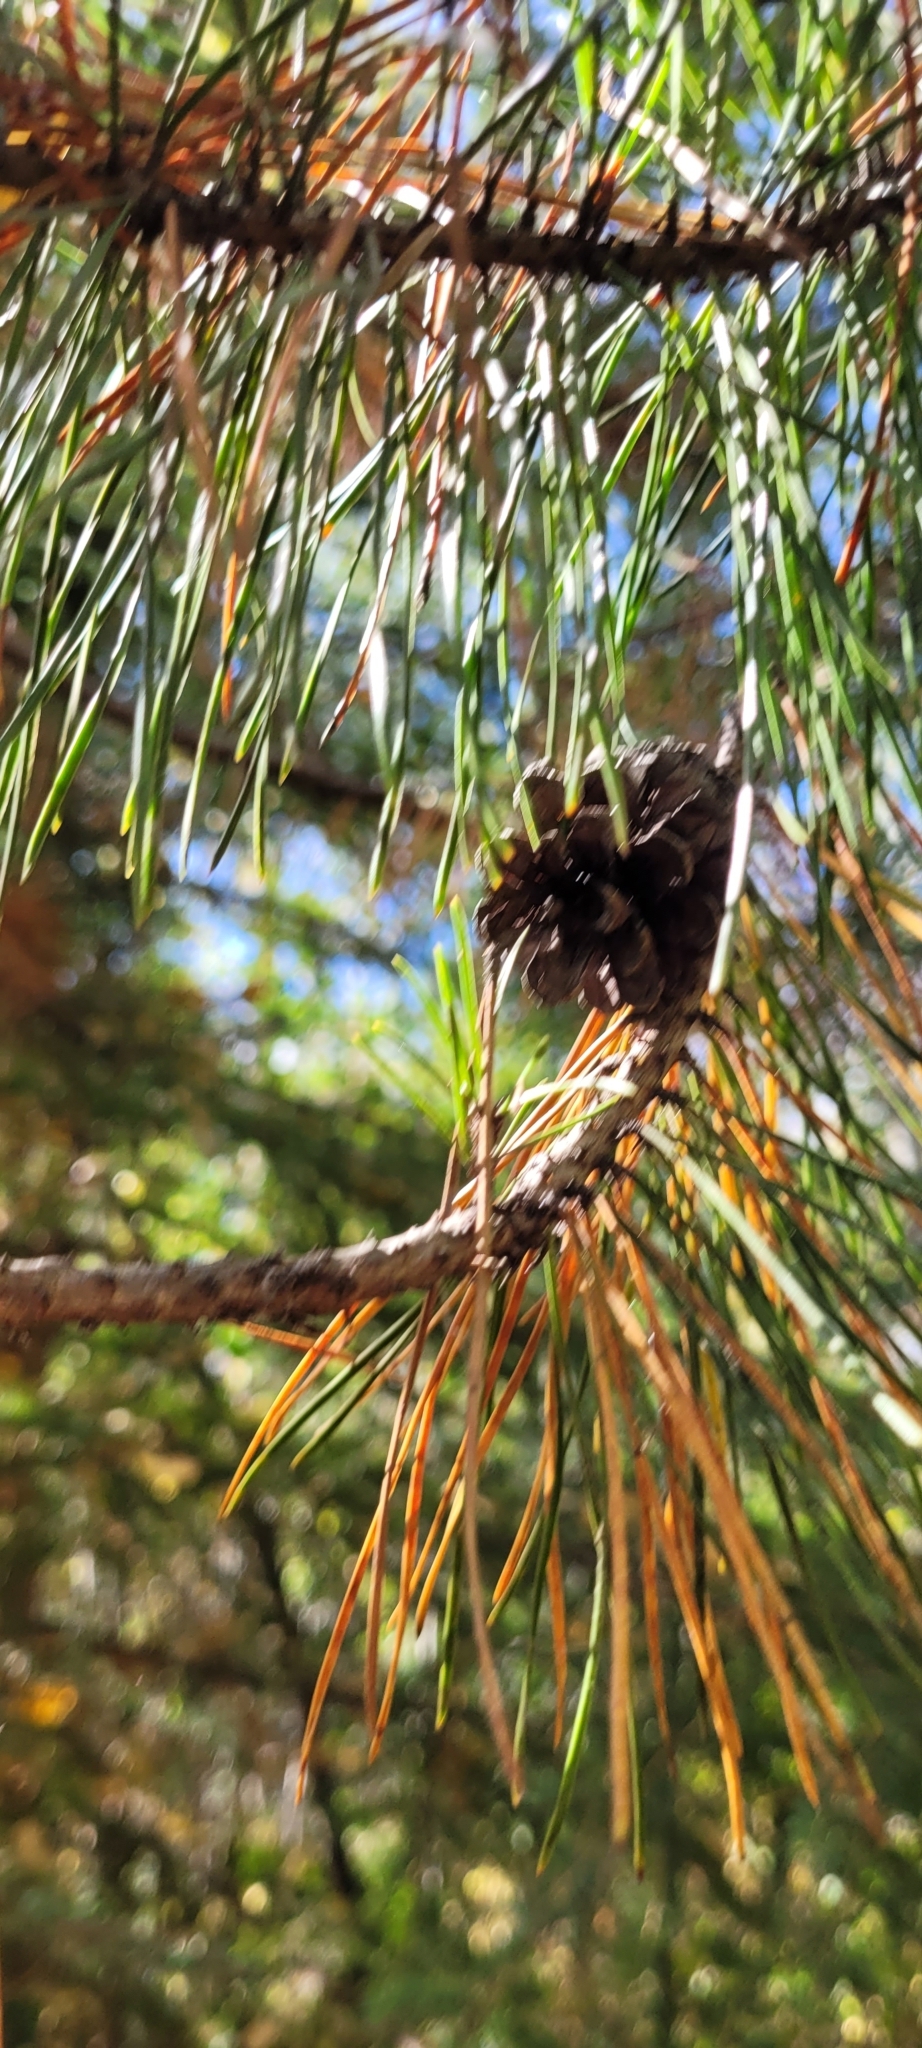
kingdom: Plantae
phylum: Tracheophyta
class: Pinopsida
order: Pinales
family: Pinaceae
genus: Pinus
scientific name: Pinus contorta
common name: Lodgepole pine
